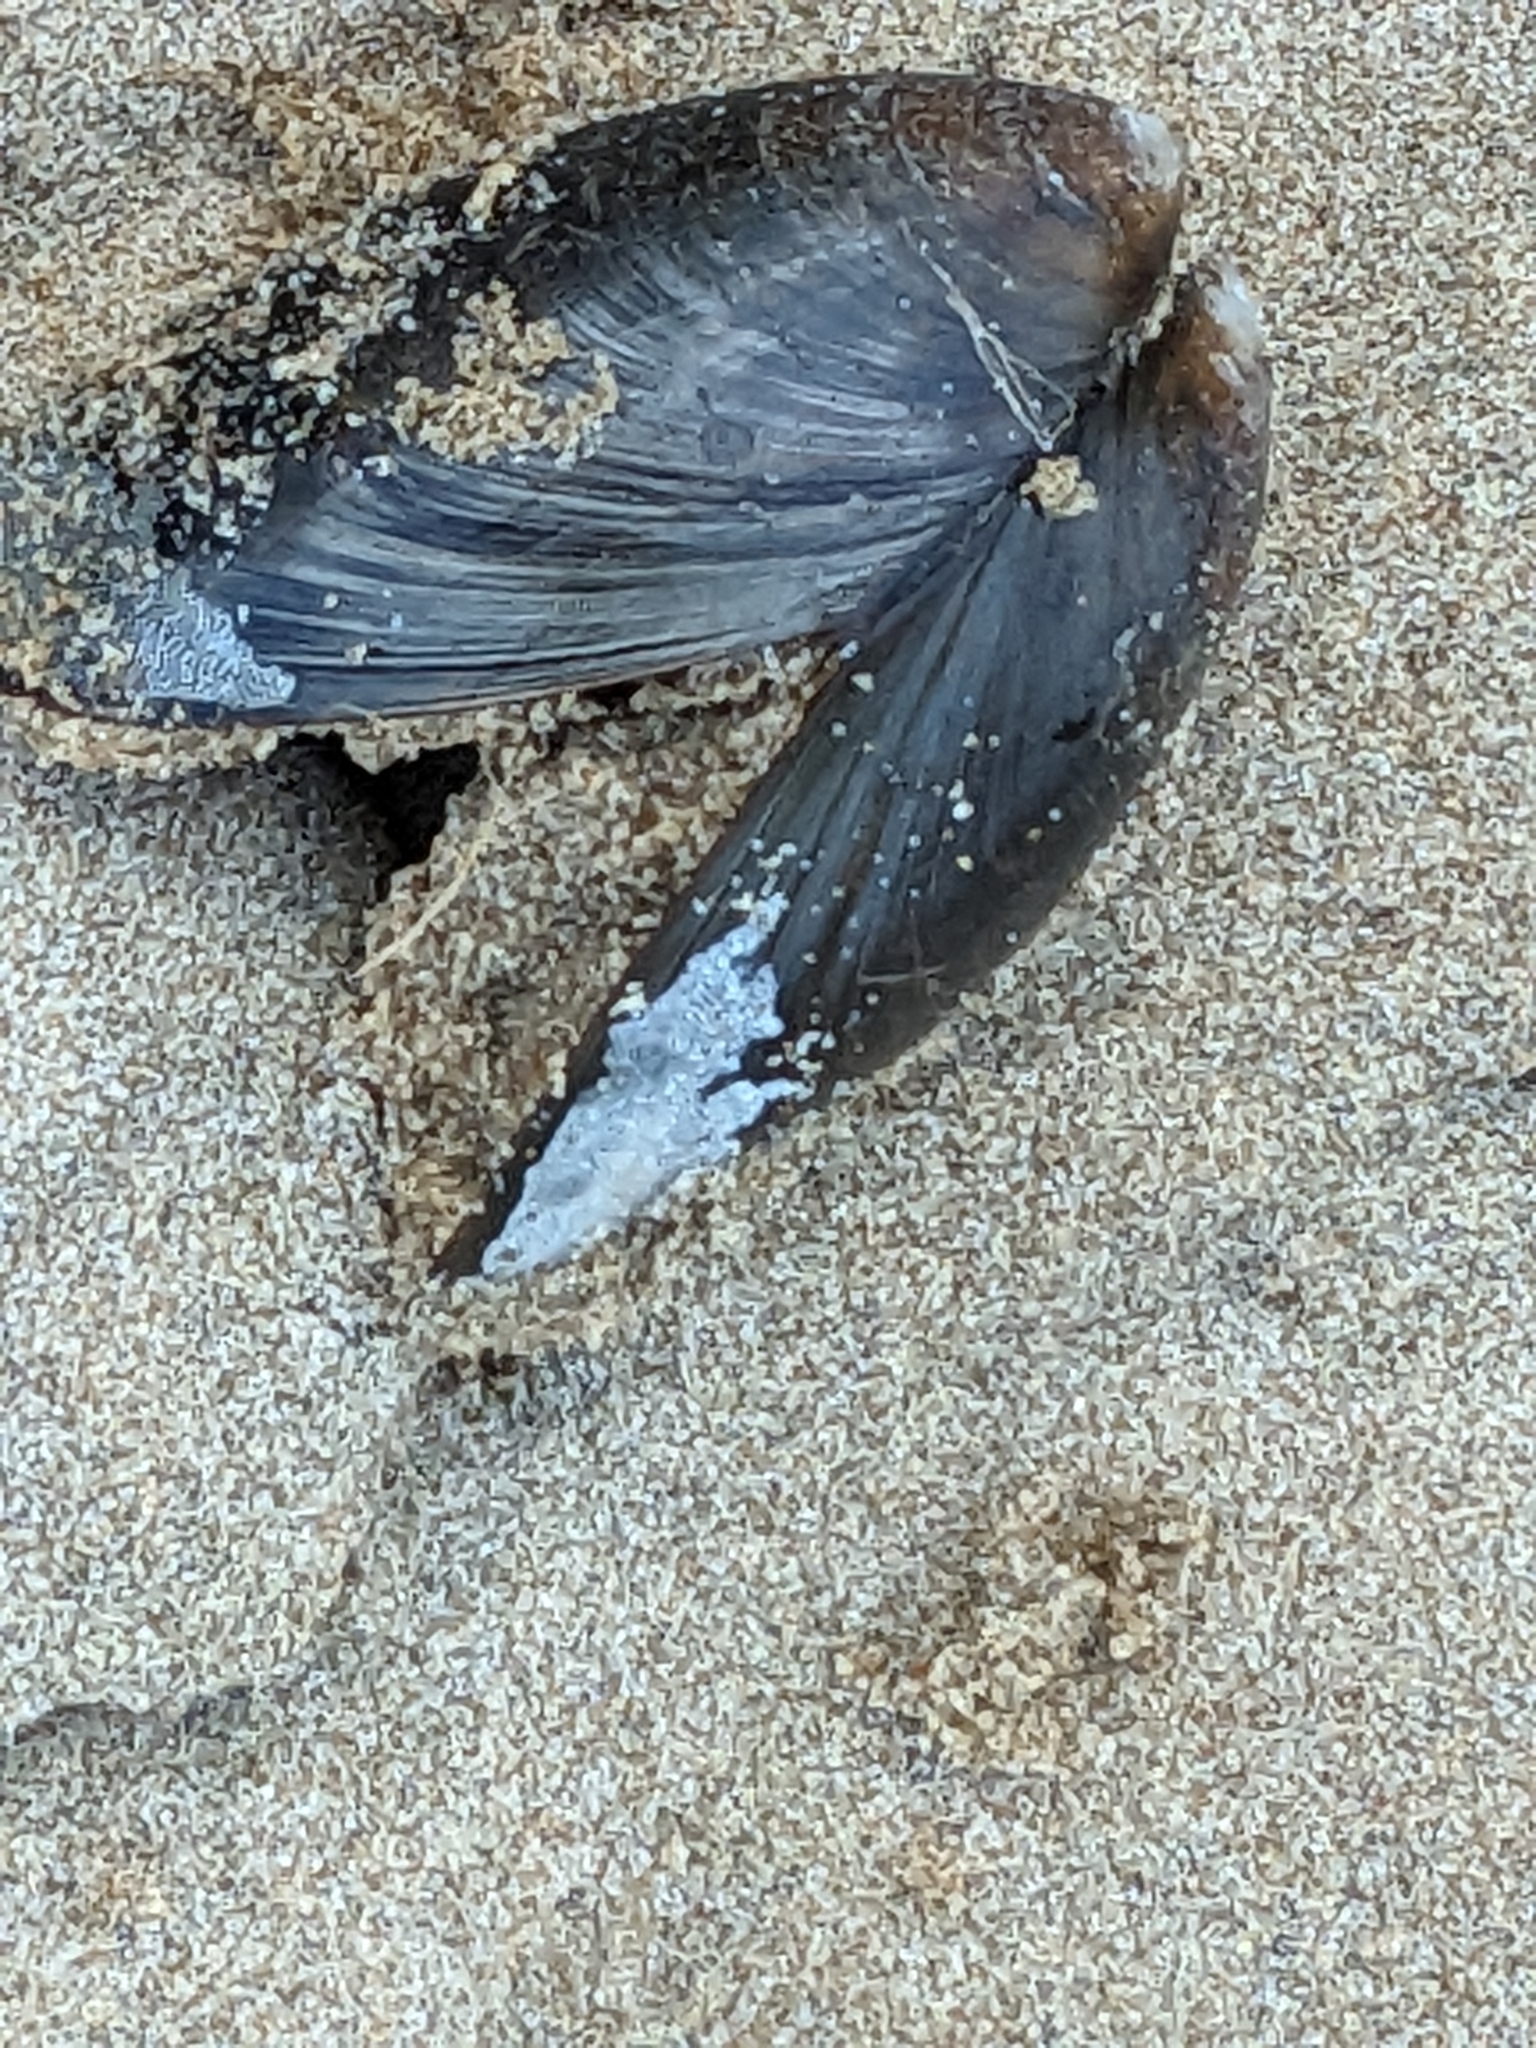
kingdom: Animalia
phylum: Mollusca
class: Bivalvia
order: Mytilida
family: Mytilidae
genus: Mytilus
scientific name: Mytilus edulis
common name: Blue mussel
